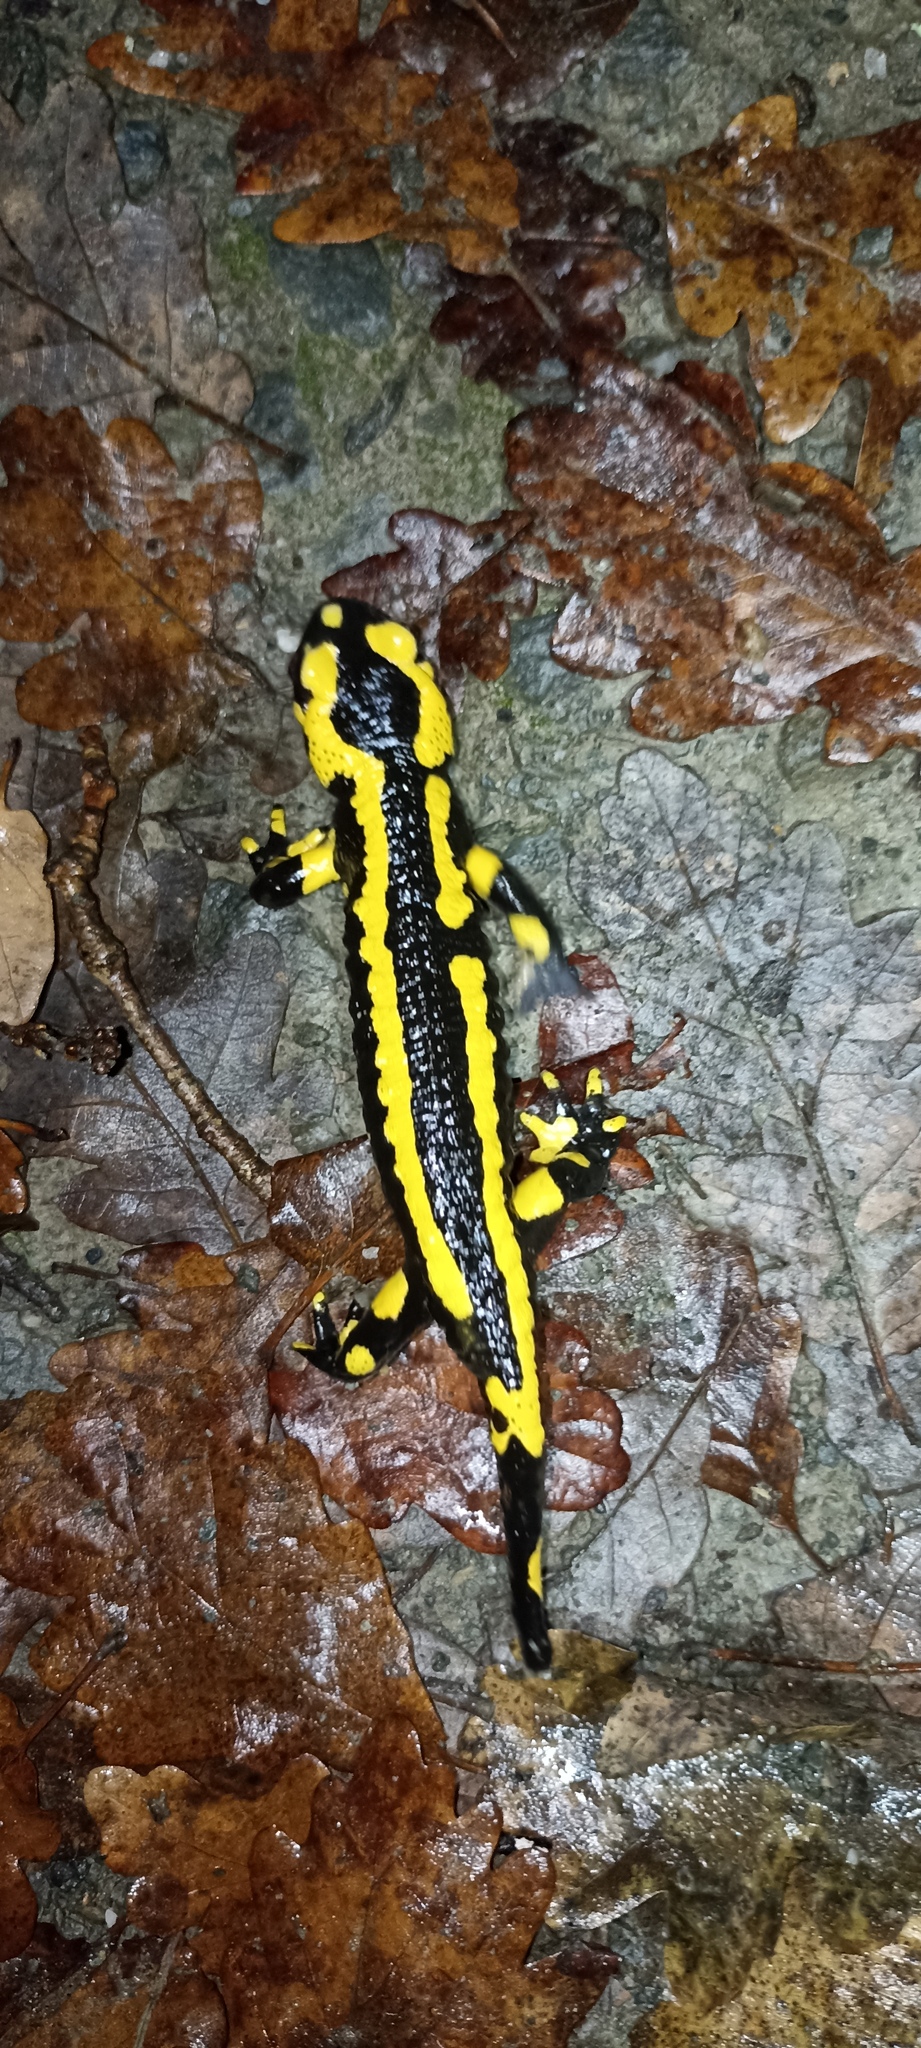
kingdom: Animalia
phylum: Chordata
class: Amphibia
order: Caudata
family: Salamandridae
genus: Salamandra
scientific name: Salamandra salamandra
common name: Fire salamander
